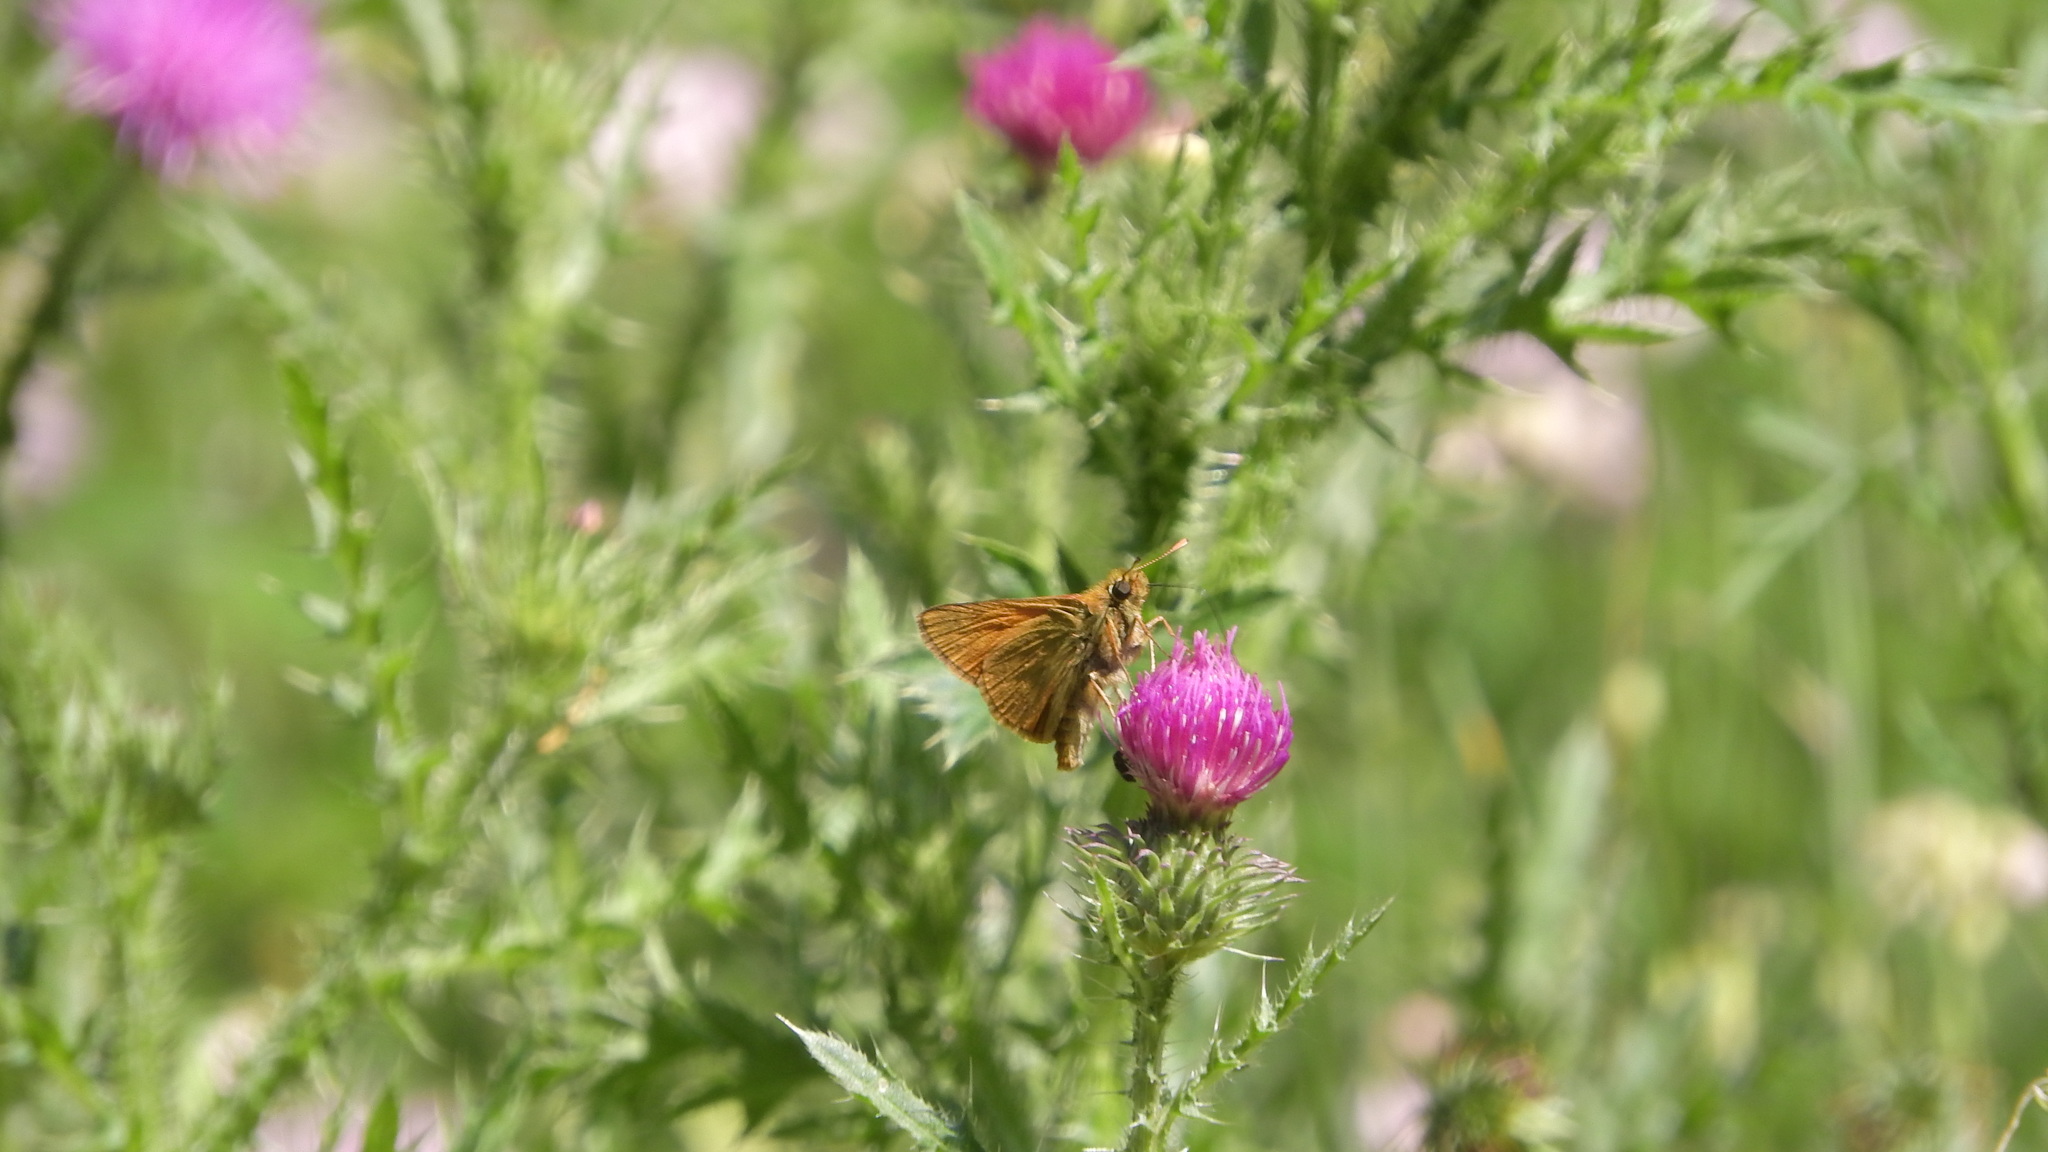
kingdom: Animalia
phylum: Arthropoda
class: Insecta
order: Lepidoptera
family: Hesperiidae
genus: Ochlodes
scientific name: Ochlodes venata
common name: Large skipper
